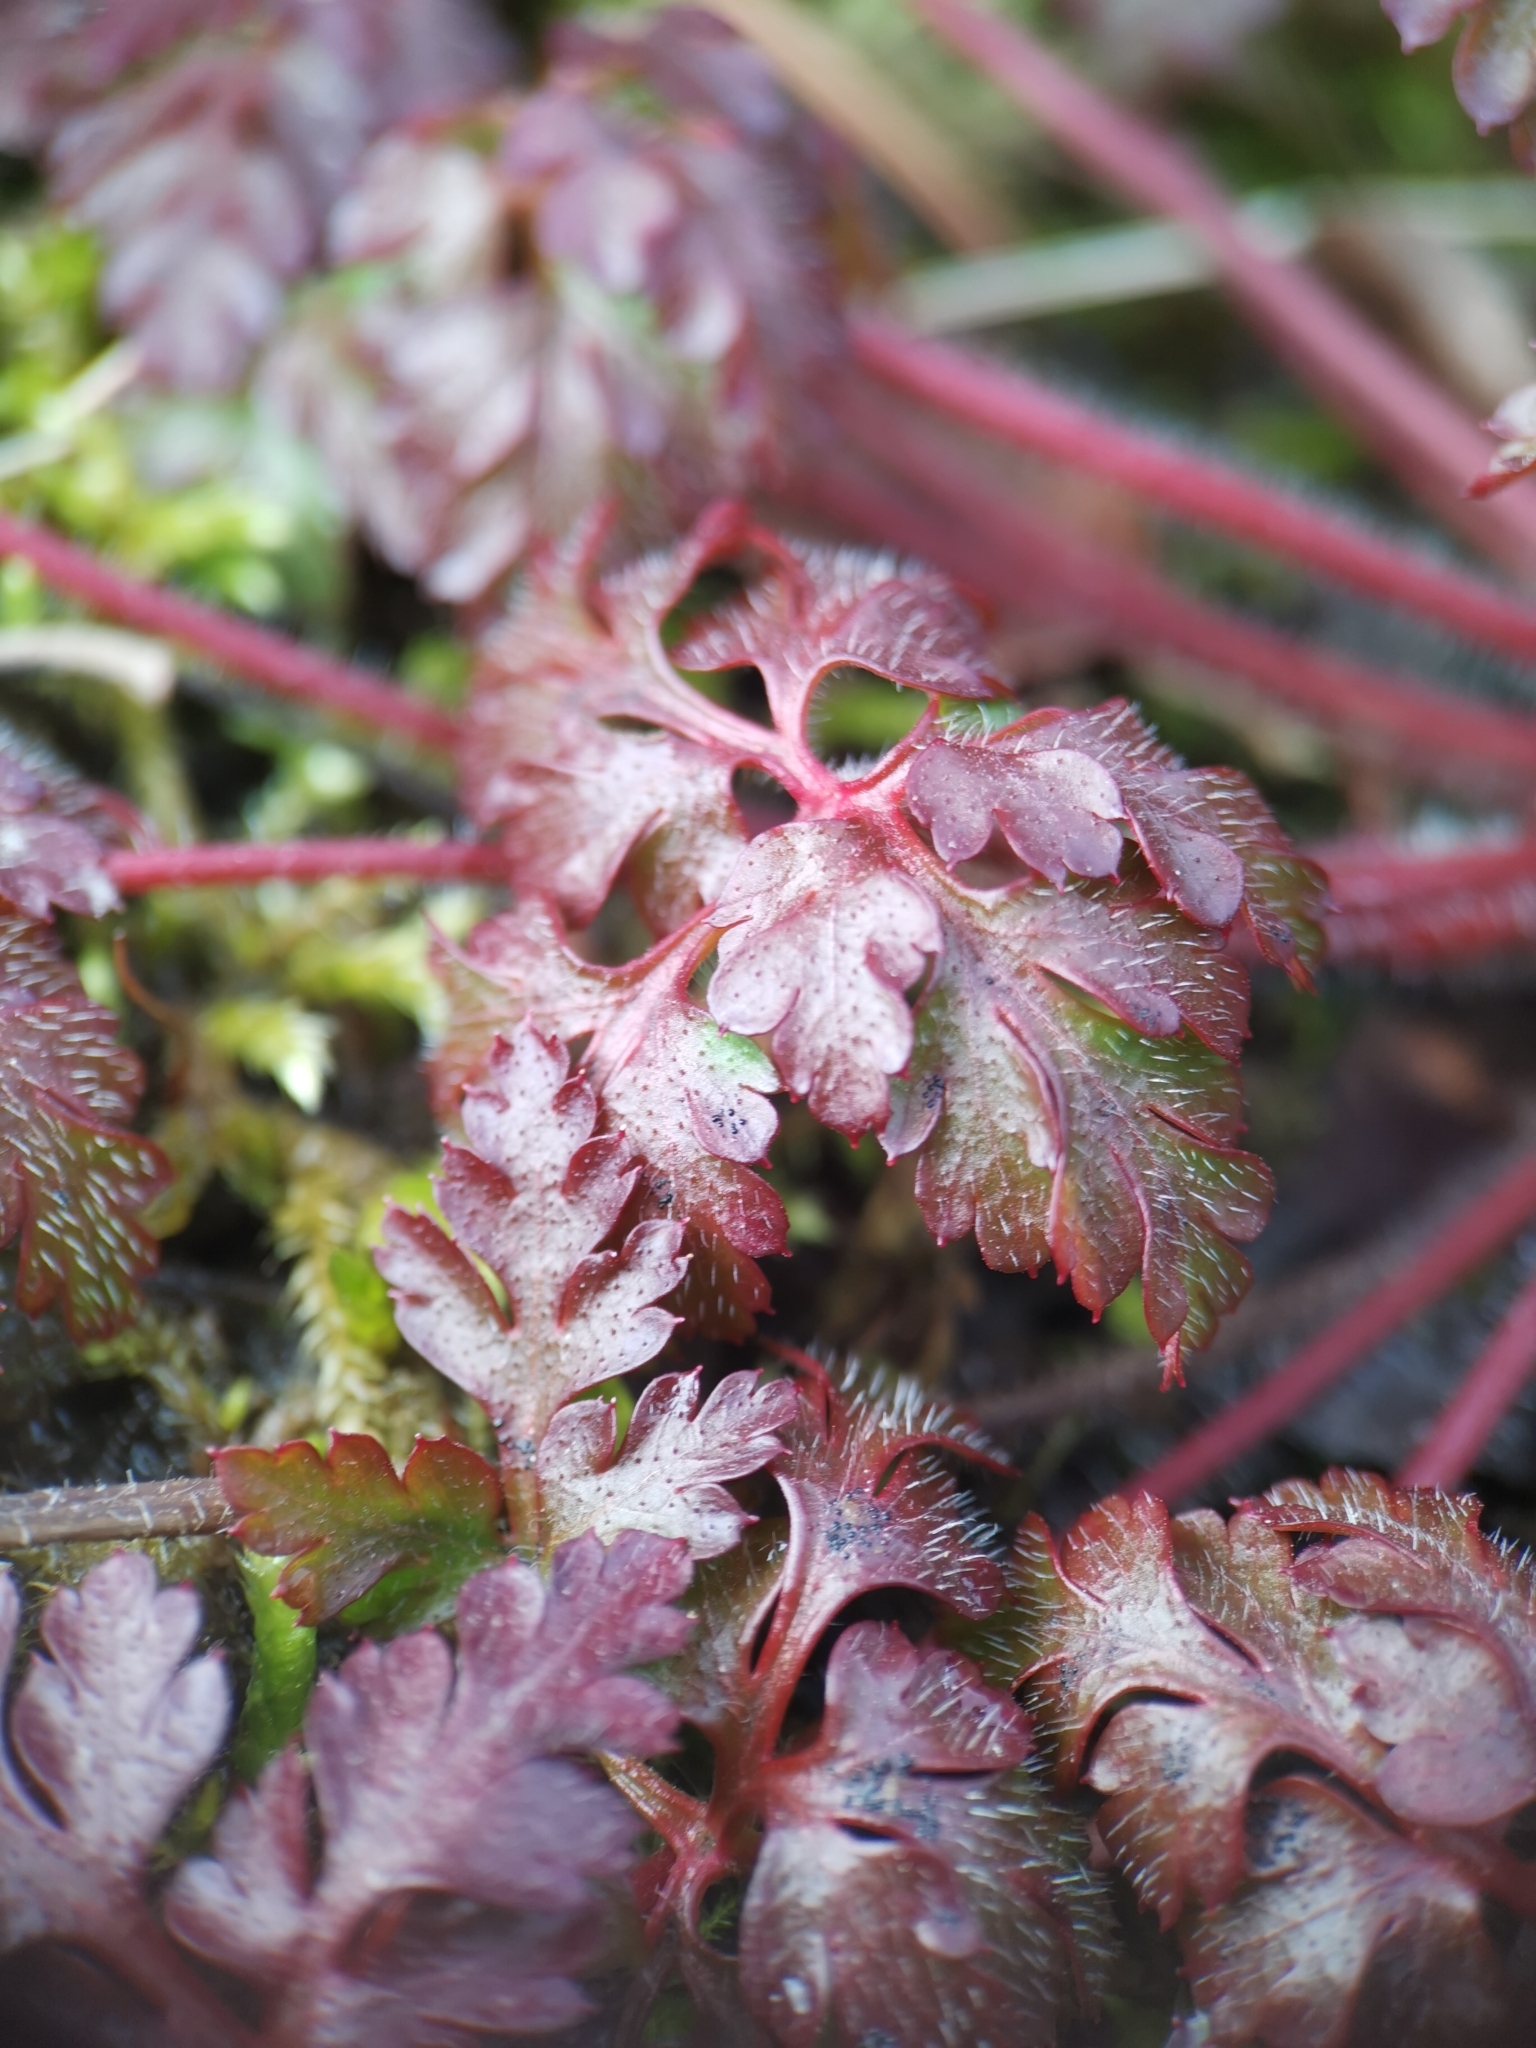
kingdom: Plantae
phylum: Tracheophyta
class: Magnoliopsida
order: Geraniales
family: Geraniaceae
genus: Geranium
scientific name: Geranium robertianum
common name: Herb-robert
